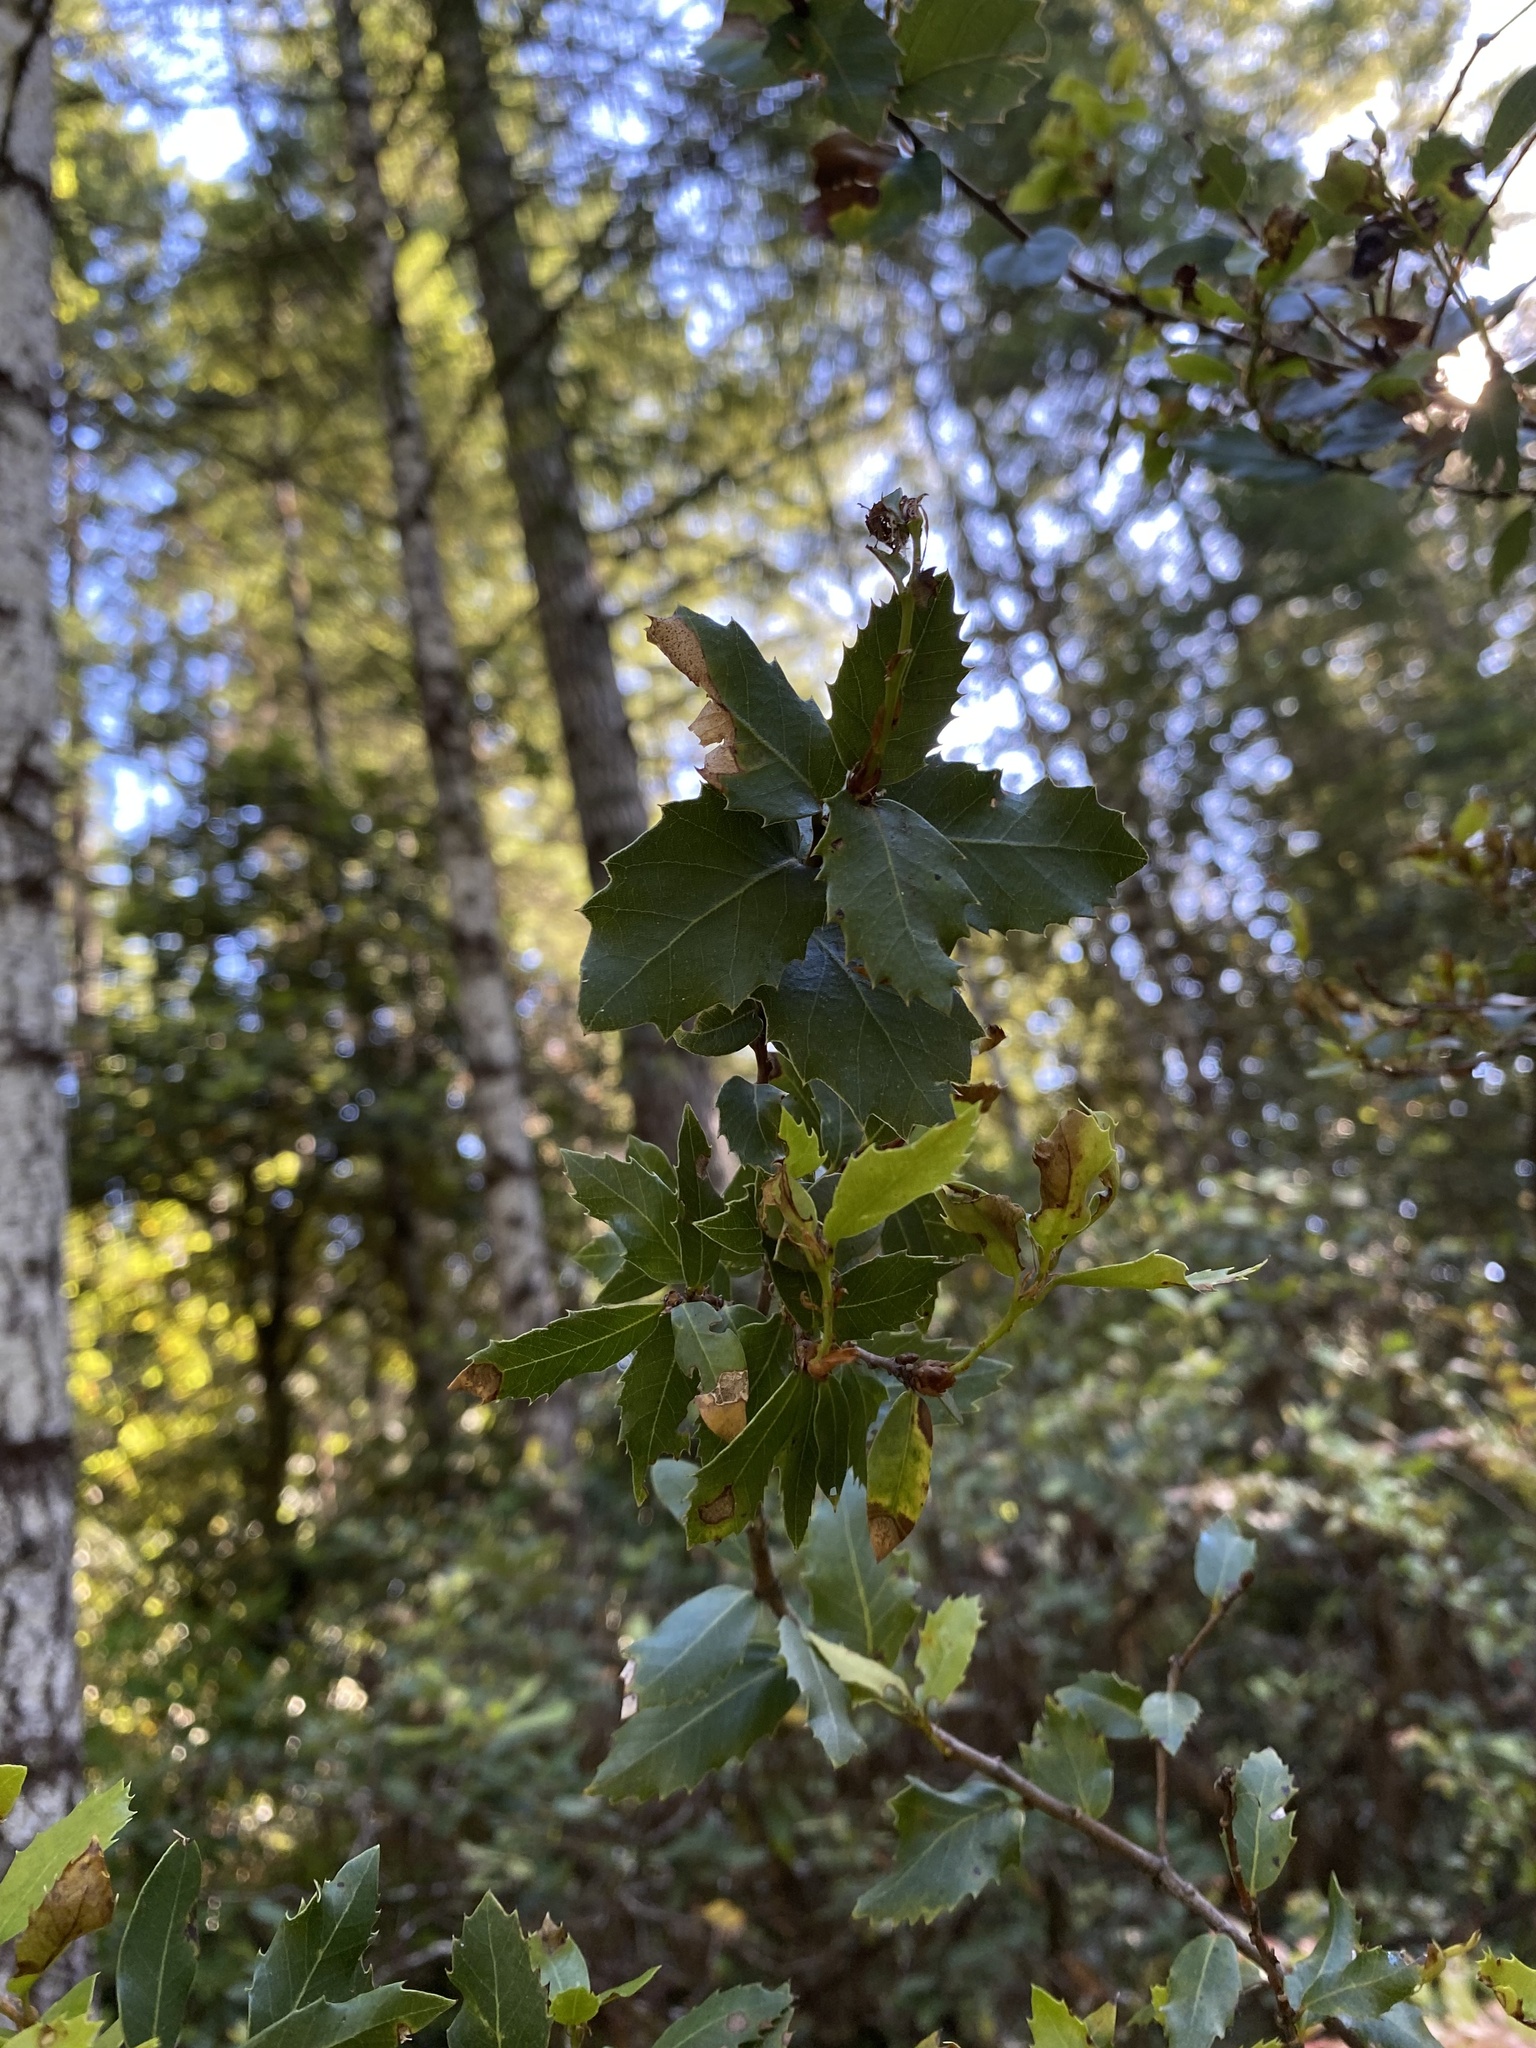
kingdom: Plantae
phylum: Tracheophyta
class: Magnoliopsida
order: Fagales
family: Fagaceae
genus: Quercus
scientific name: Quercus chrysolepis
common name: Canyon live oak
